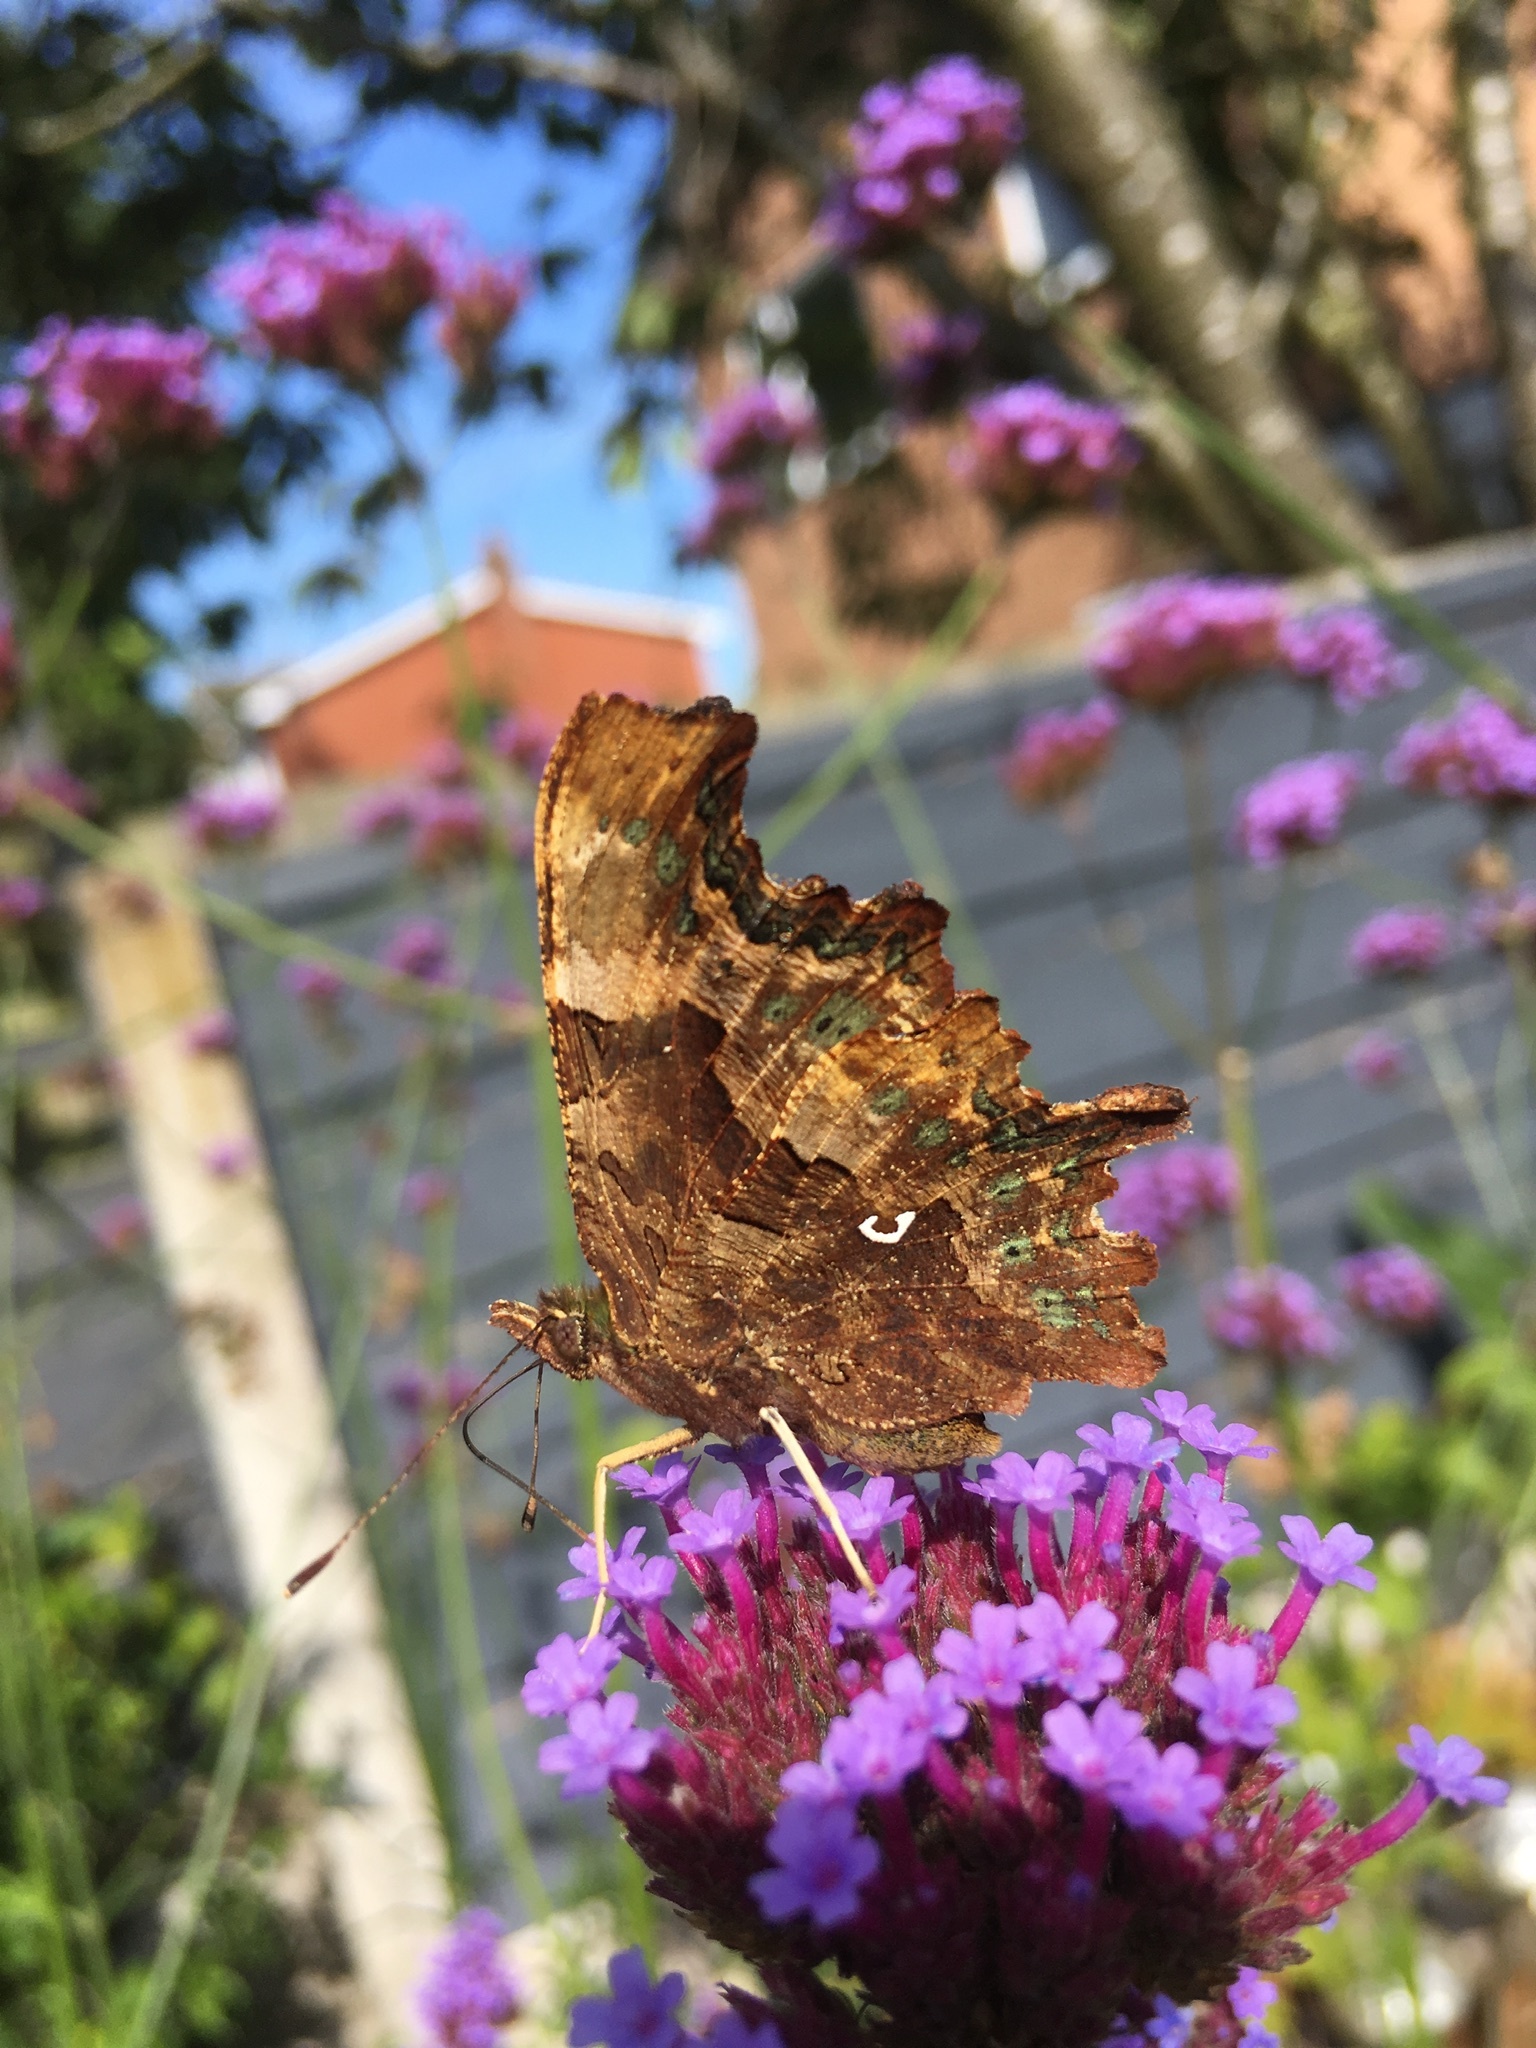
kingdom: Animalia
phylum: Arthropoda
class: Insecta
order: Lepidoptera
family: Nymphalidae
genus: Polygonia
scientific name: Polygonia c-album
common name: Comma
